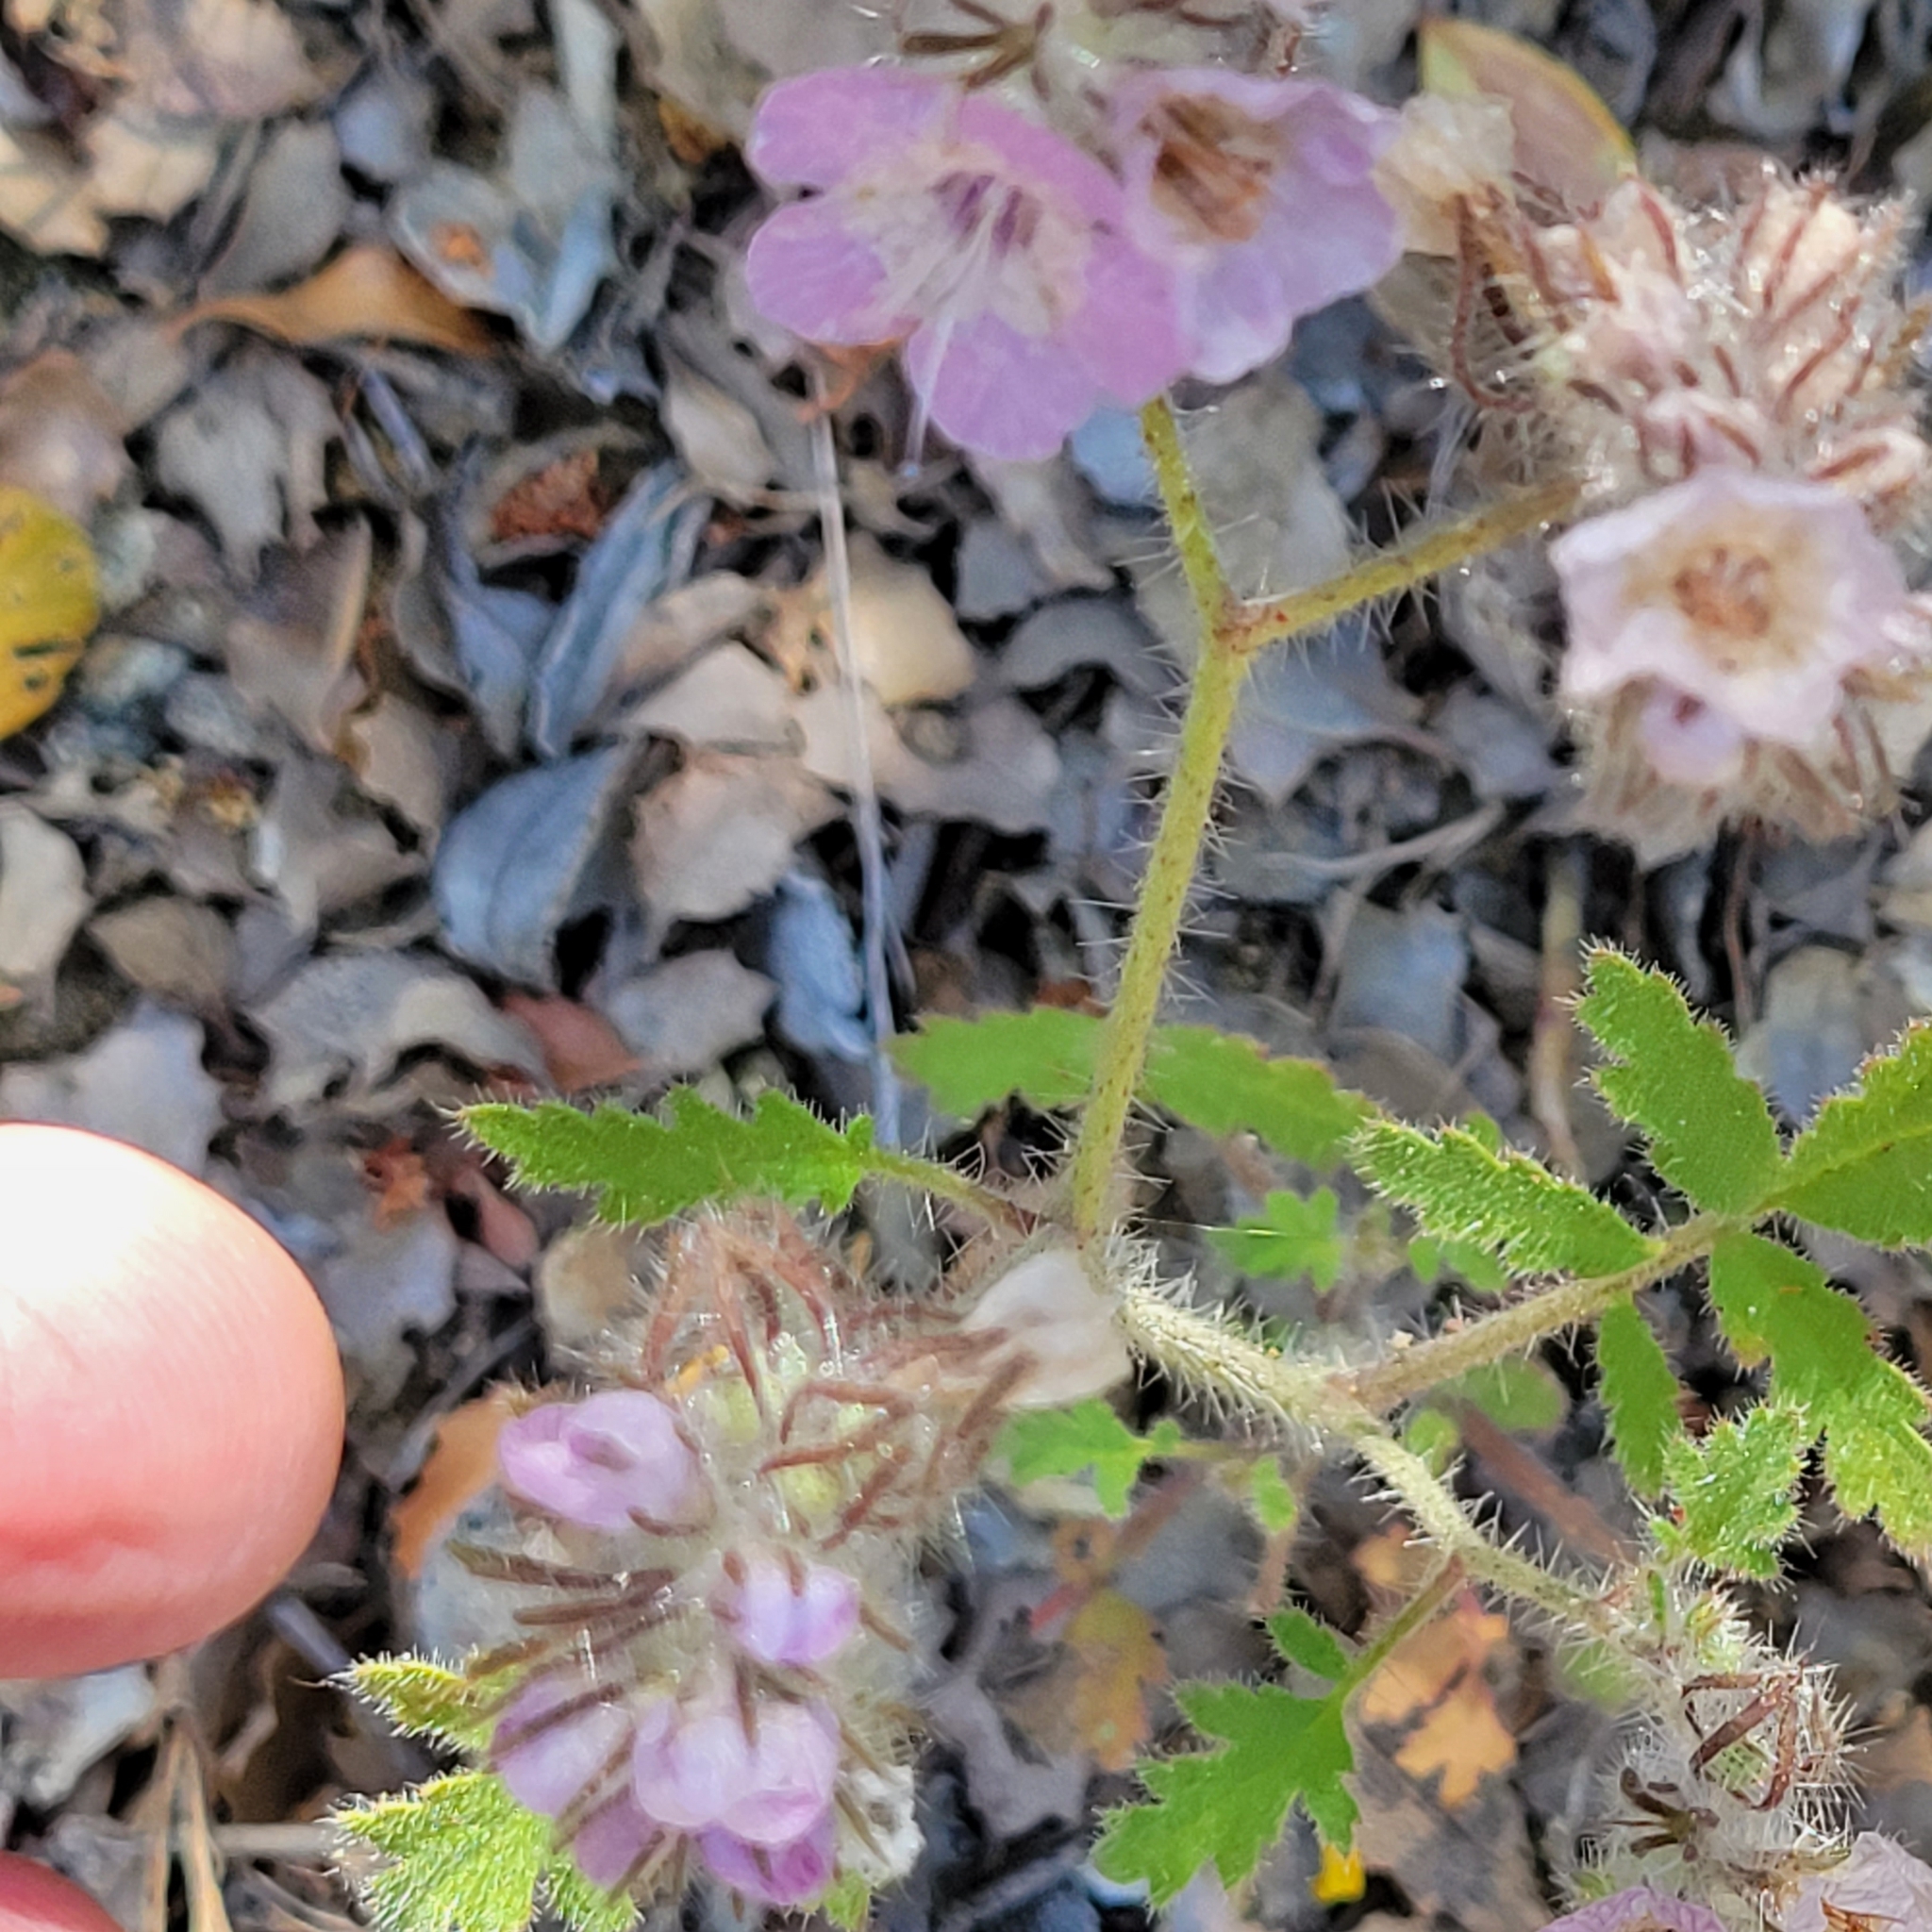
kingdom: Plantae
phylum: Tracheophyta
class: Magnoliopsida
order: Boraginales
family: Hydrophyllaceae
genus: Phacelia
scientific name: Phacelia cicutaria
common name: Caterpillar phacelia
